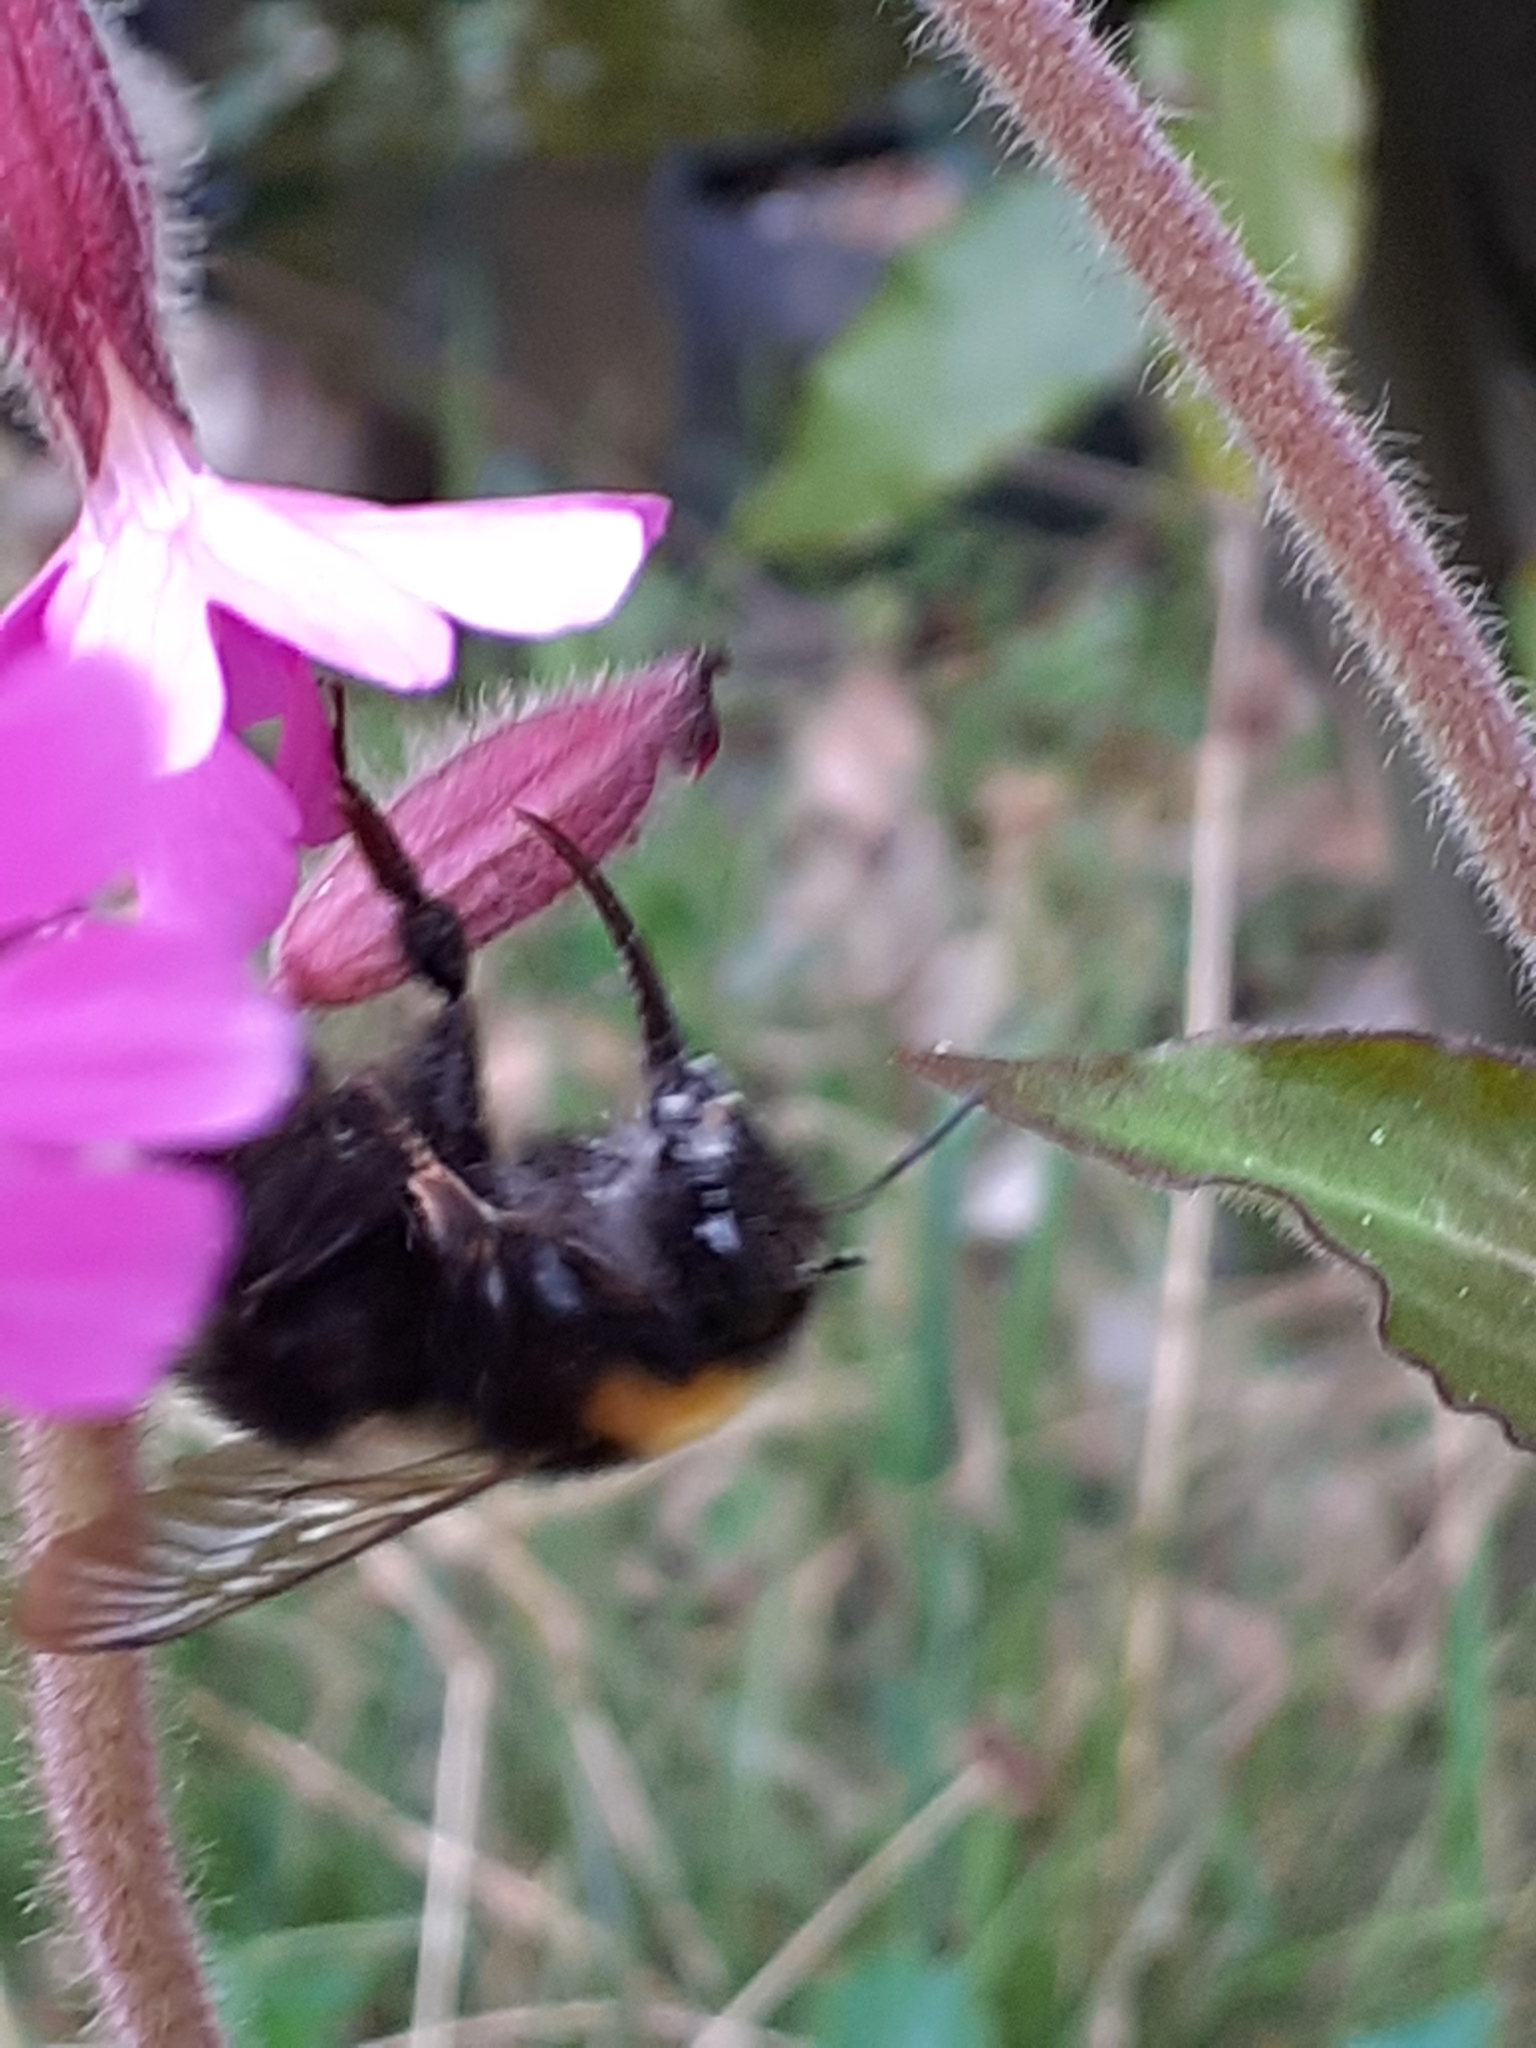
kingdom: Animalia
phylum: Arthropoda
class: Insecta
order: Hymenoptera
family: Apidae
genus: Bombus
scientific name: Bombus hortorum
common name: Garden bumblebee
